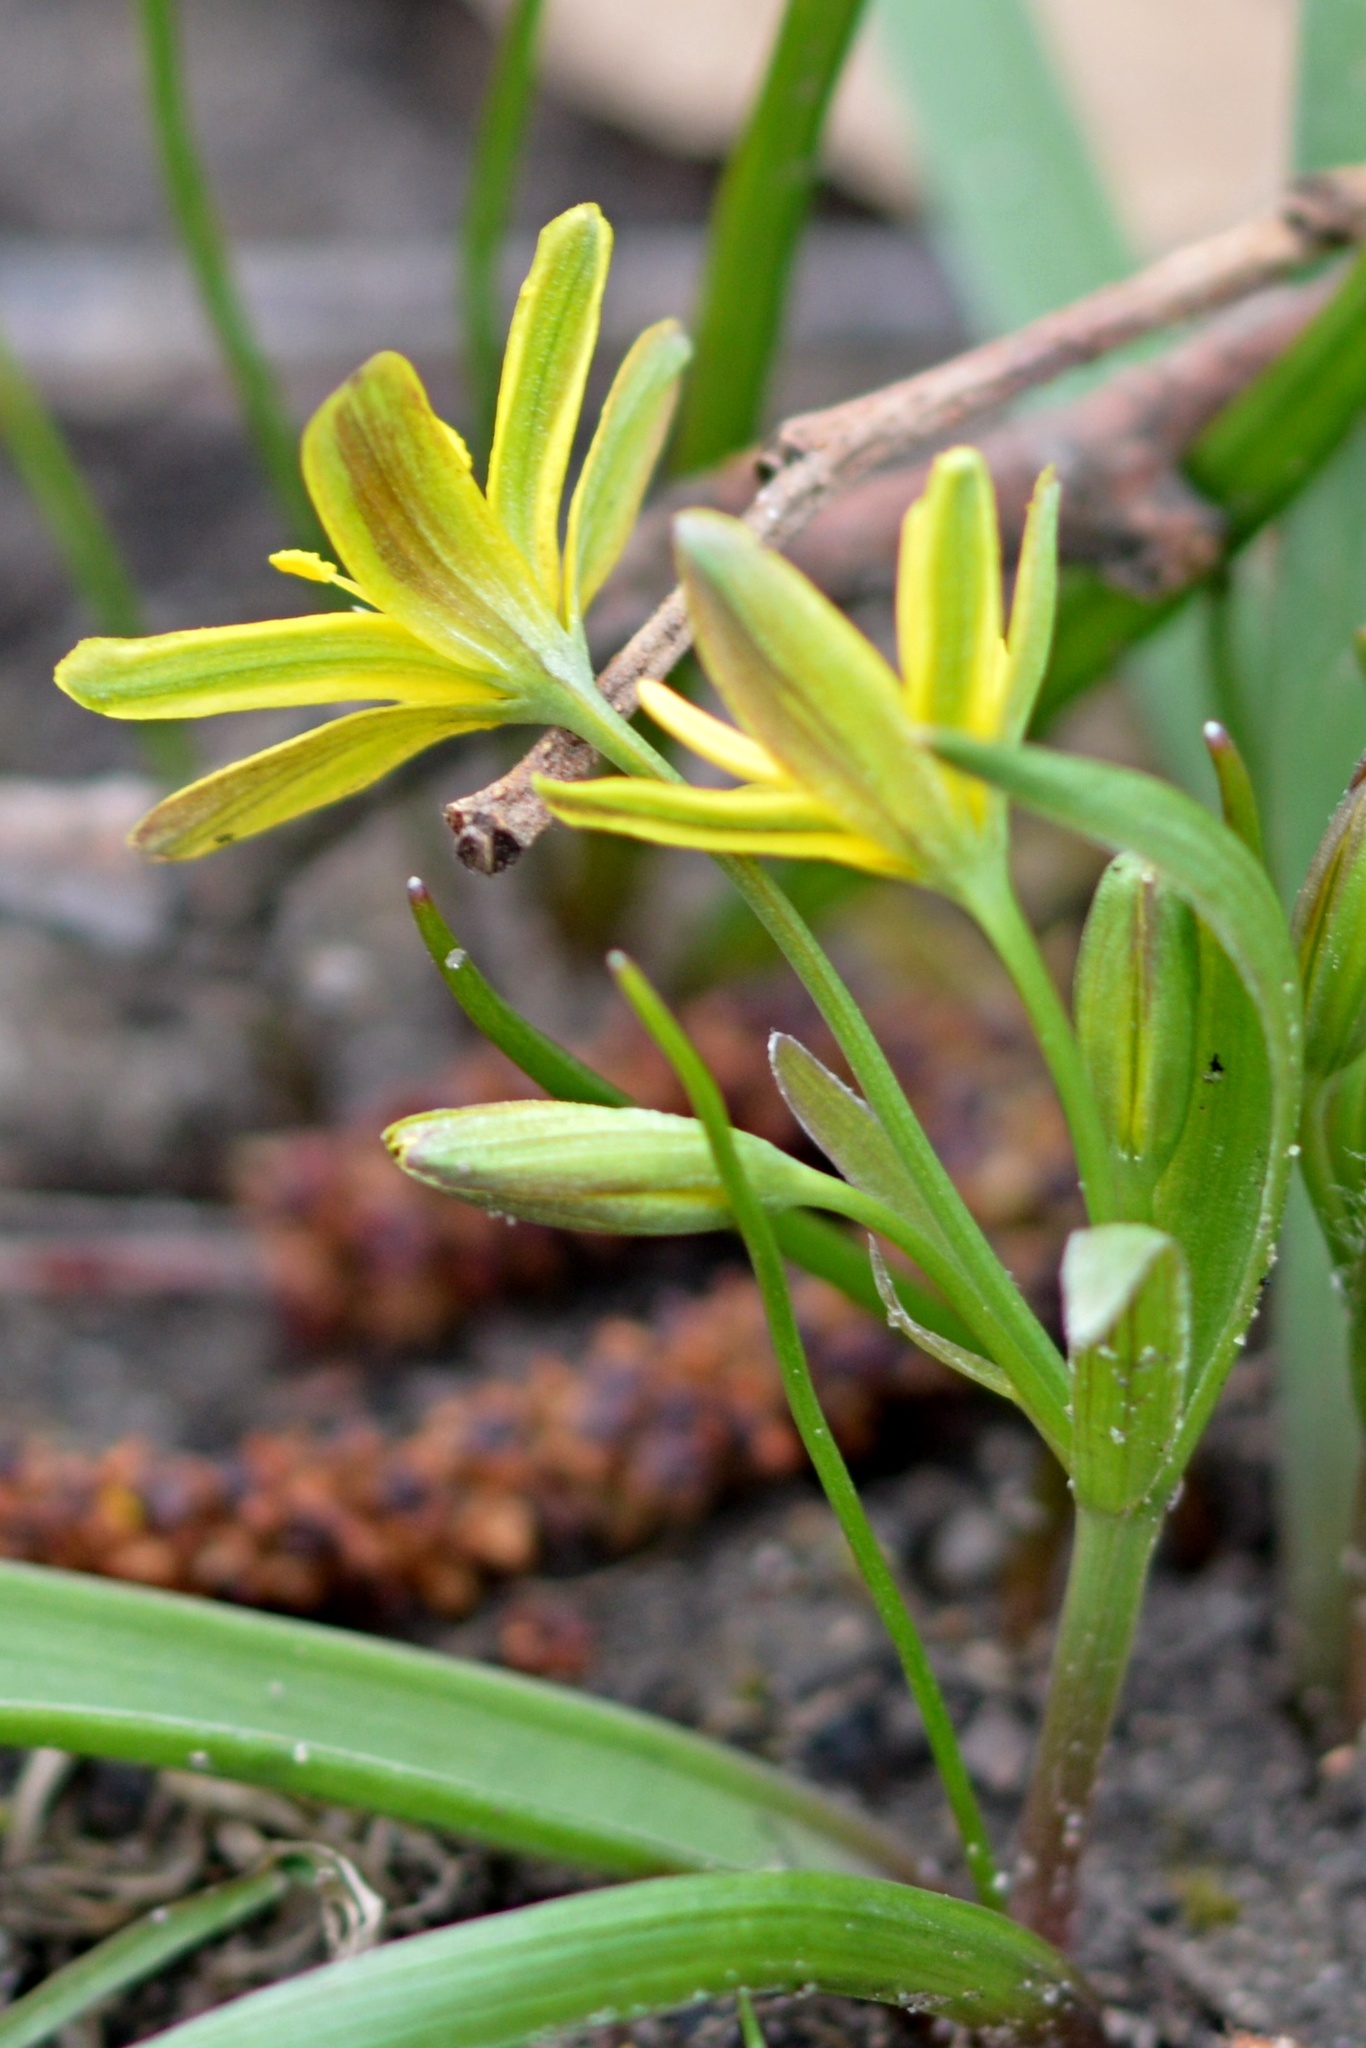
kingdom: Plantae
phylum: Tracheophyta
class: Liliopsida
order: Liliales
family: Liliaceae
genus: Gagea
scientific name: Gagea lutea
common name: Yellow star-of-bethlehem
